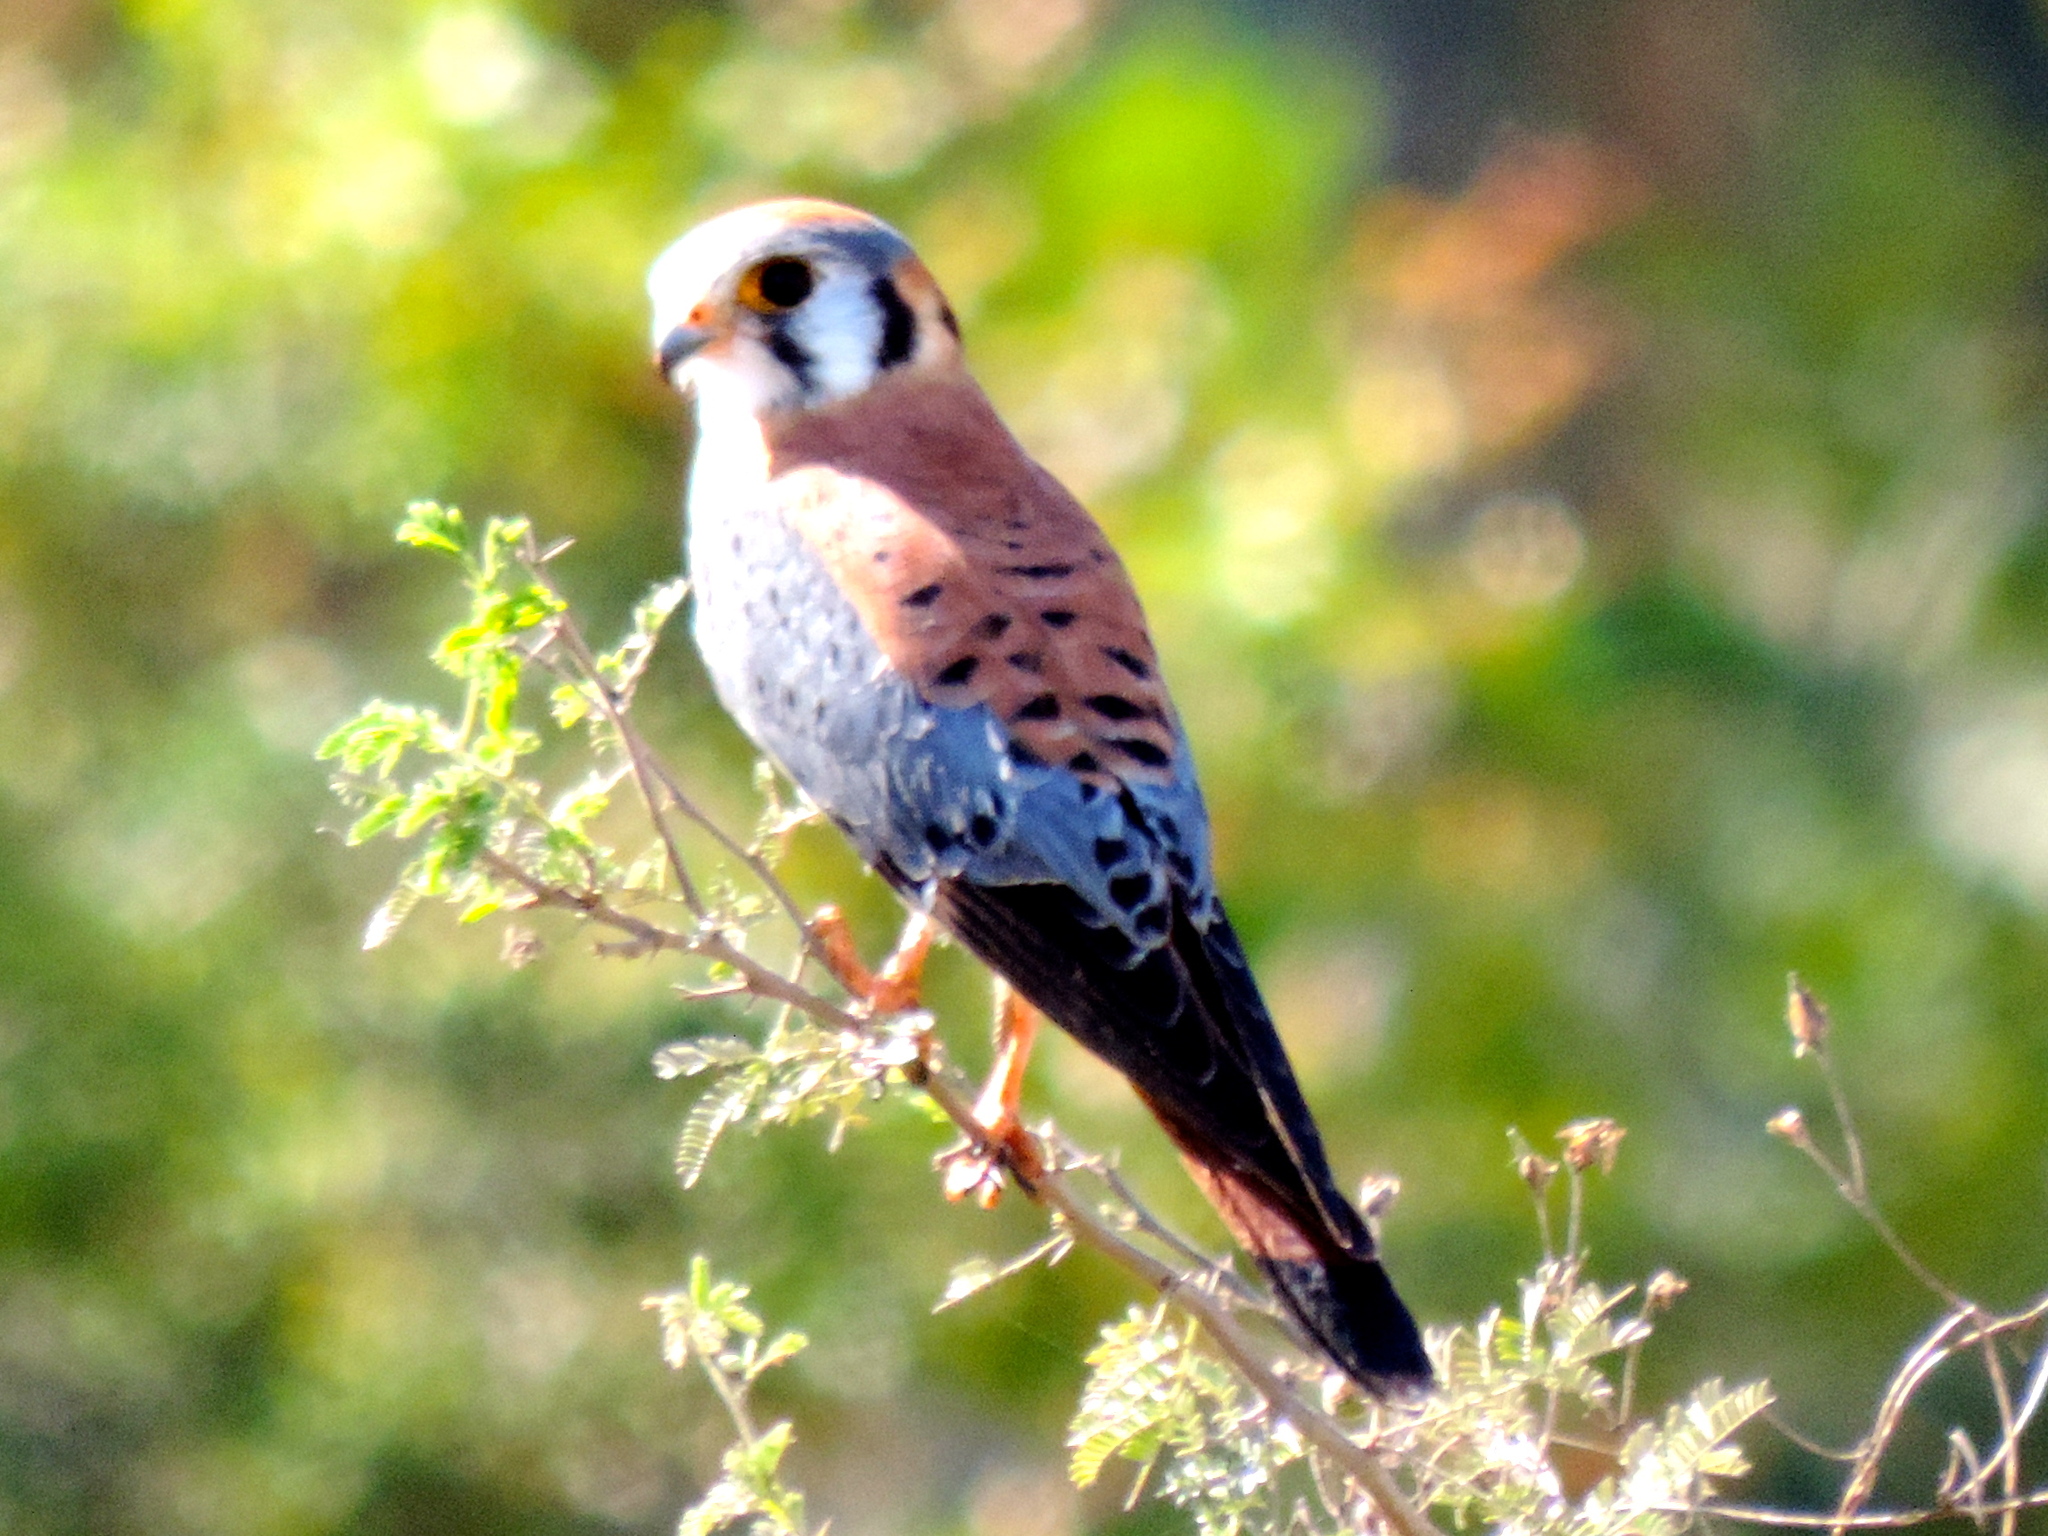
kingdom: Animalia
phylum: Chordata
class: Aves
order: Falconiformes
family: Falconidae
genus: Falco
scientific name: Falco sparverius
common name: American kestrel
